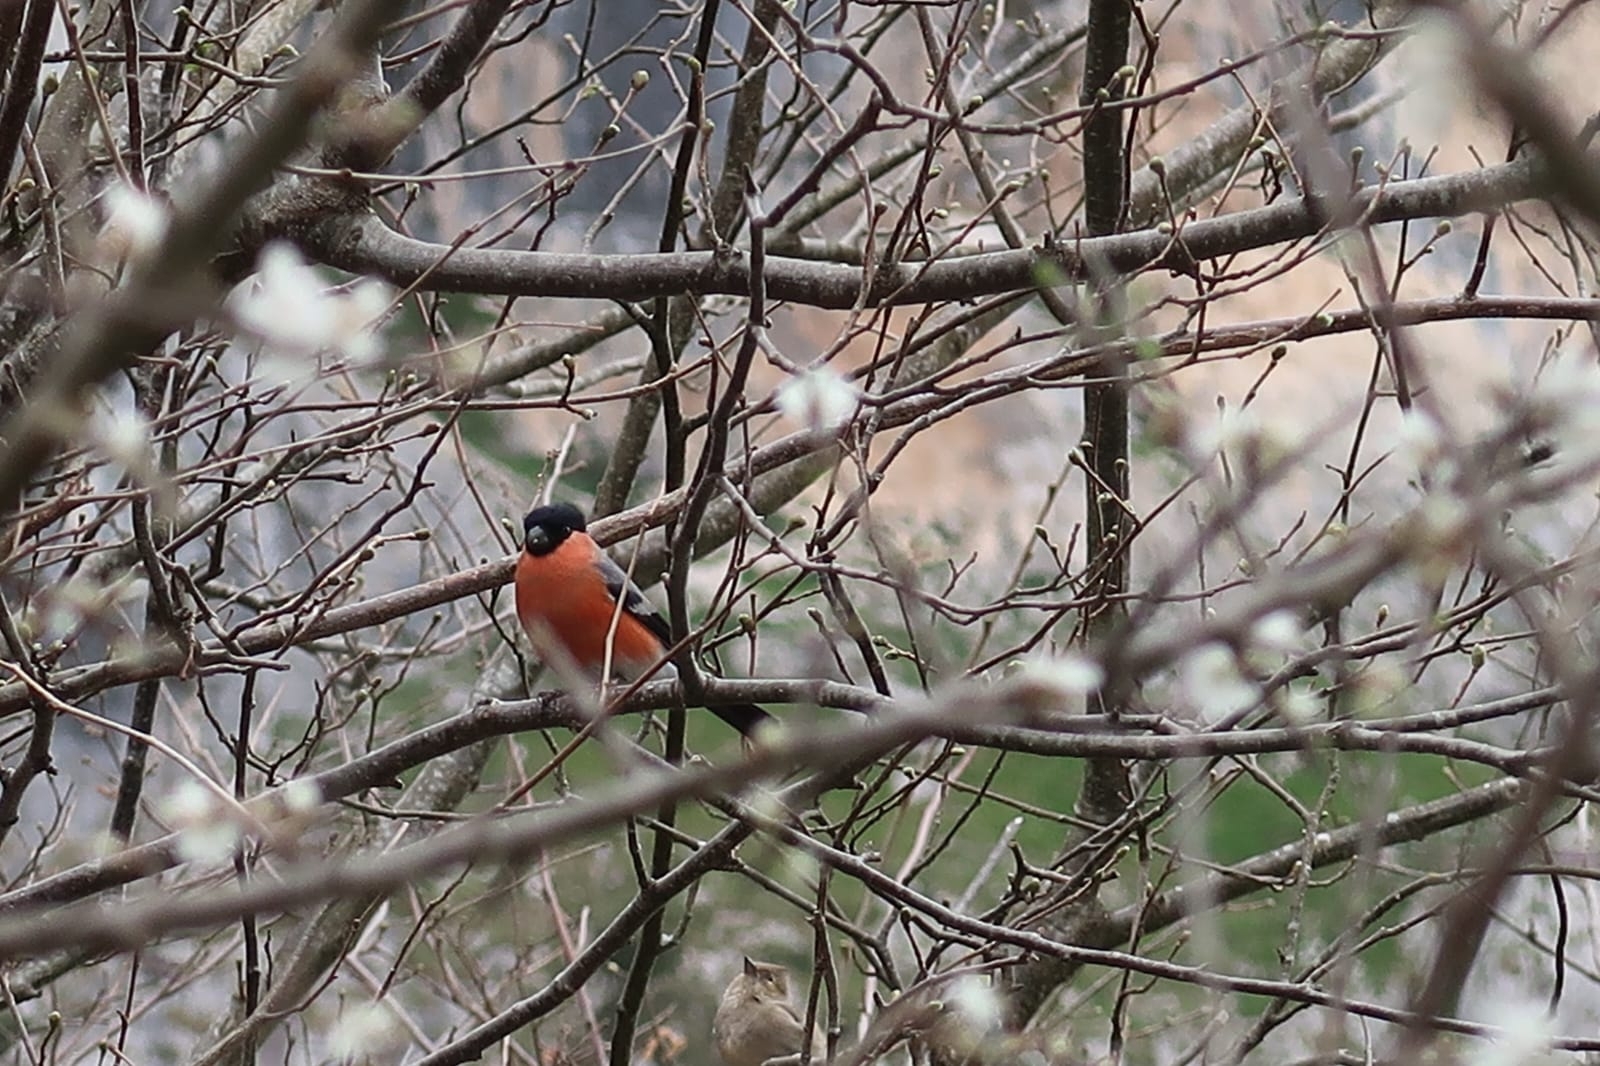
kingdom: Animalia
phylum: Chordata
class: Aves
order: Passeriformes
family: Fringillidae
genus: Pyrrhula
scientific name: Pyrrhula pyrrhula
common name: Eurasian bullfinch
